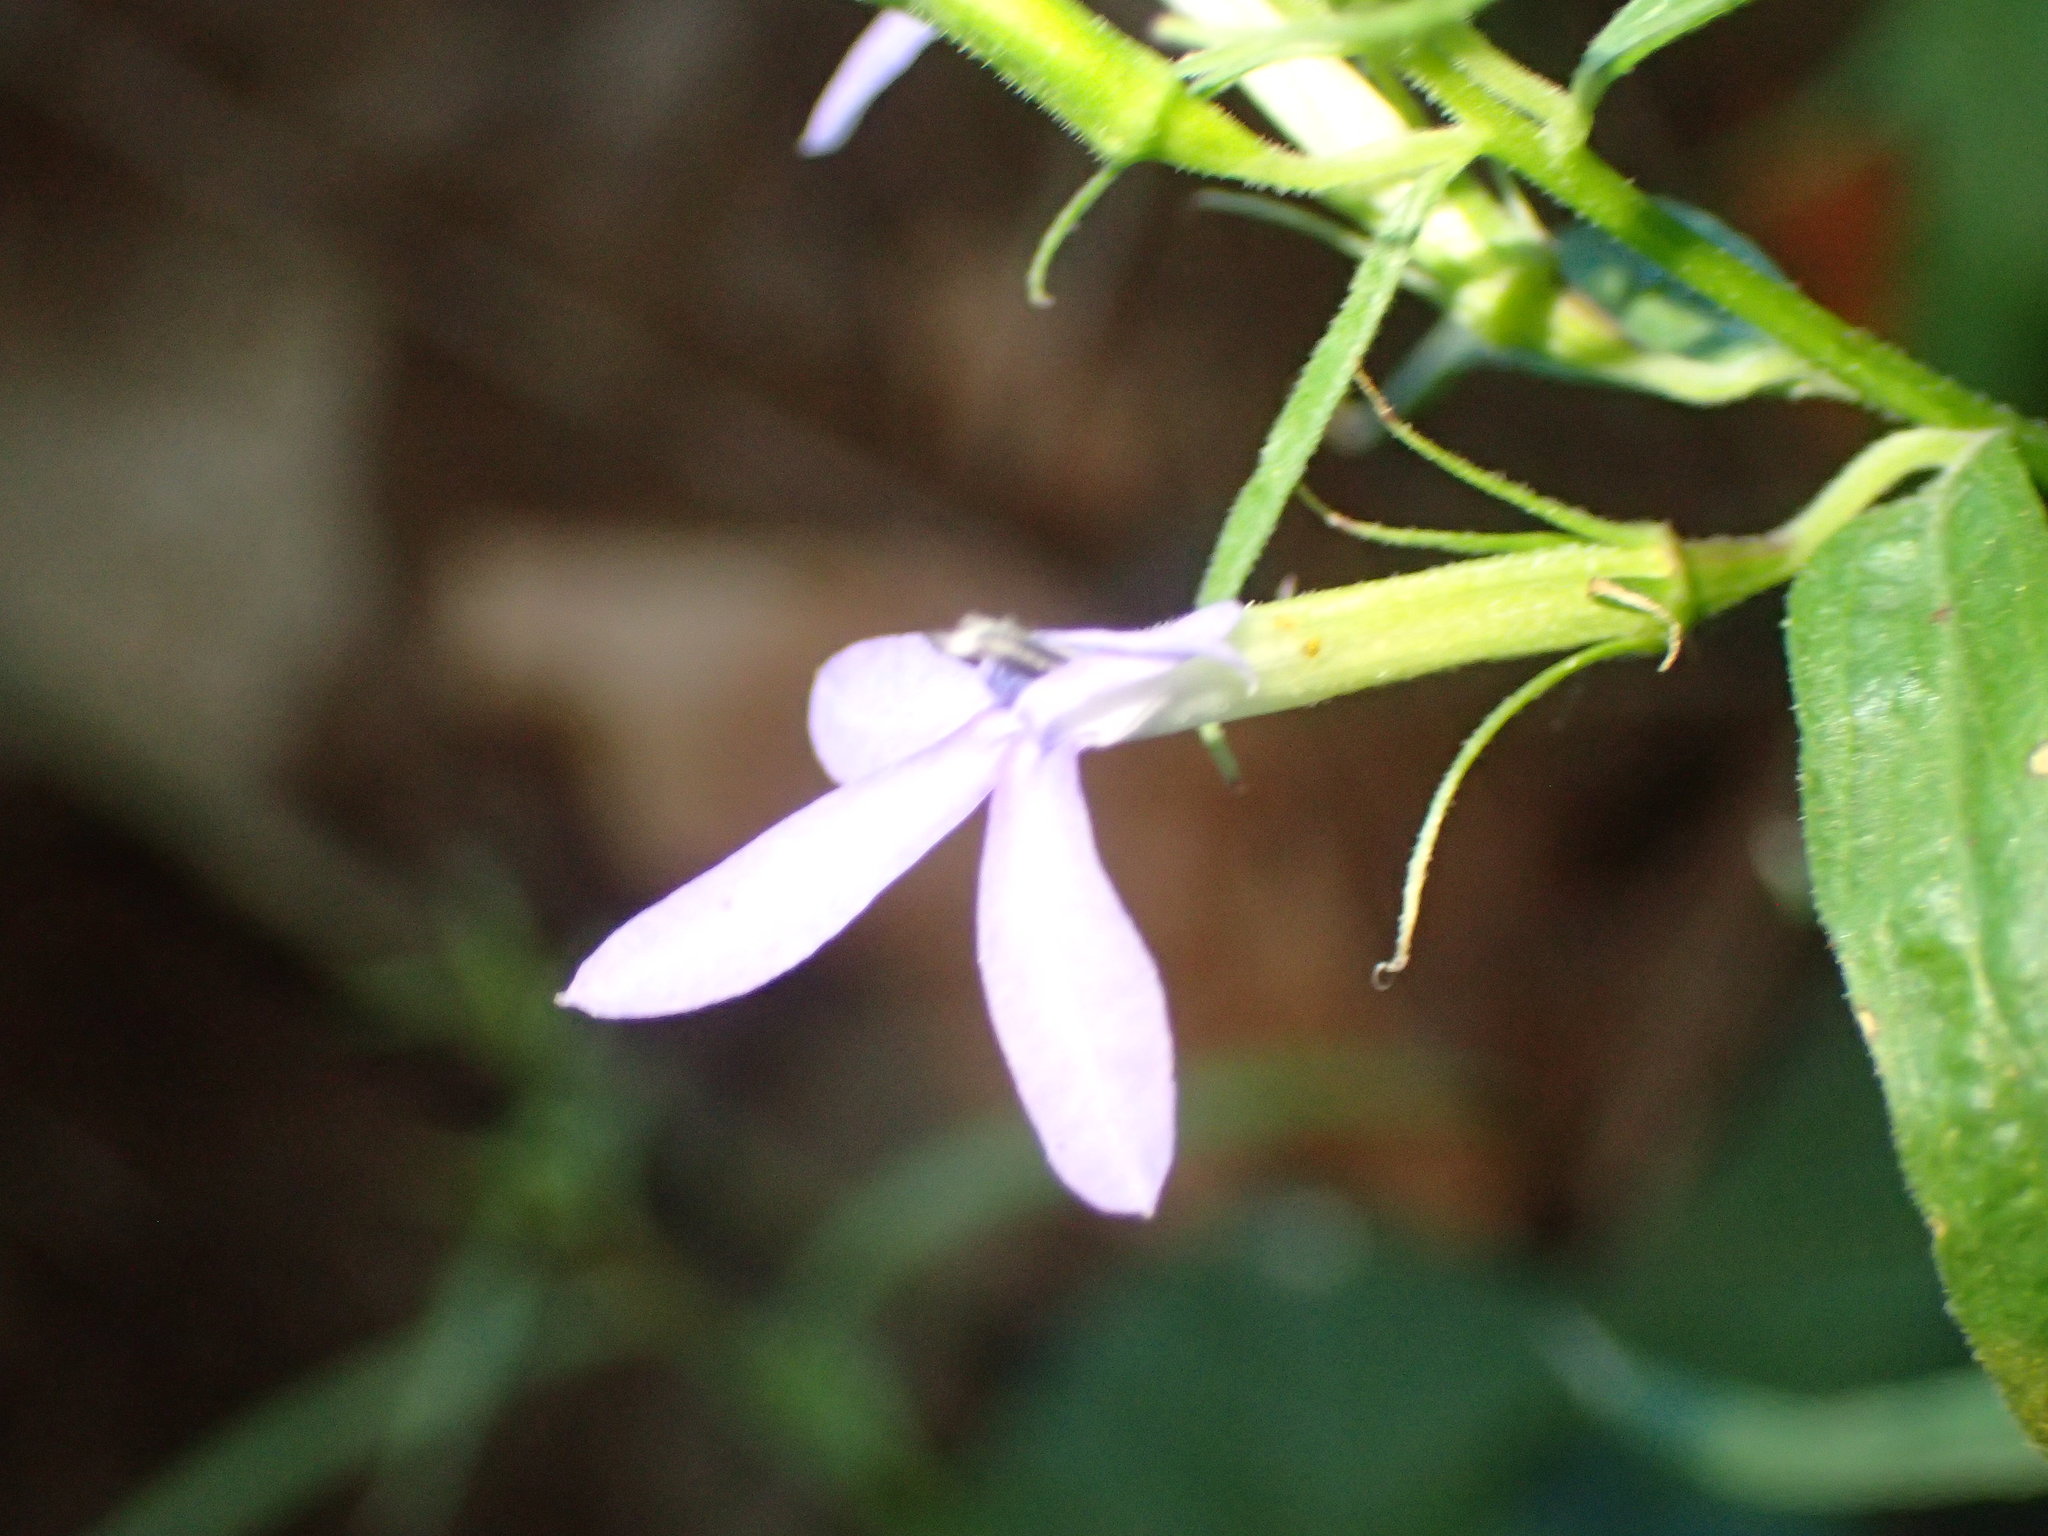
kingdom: Plantae
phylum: Tracheophyta
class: Magnoliopsida
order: Asterales
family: Campanulaceae
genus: Palmerella
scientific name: Palmerella debilis
